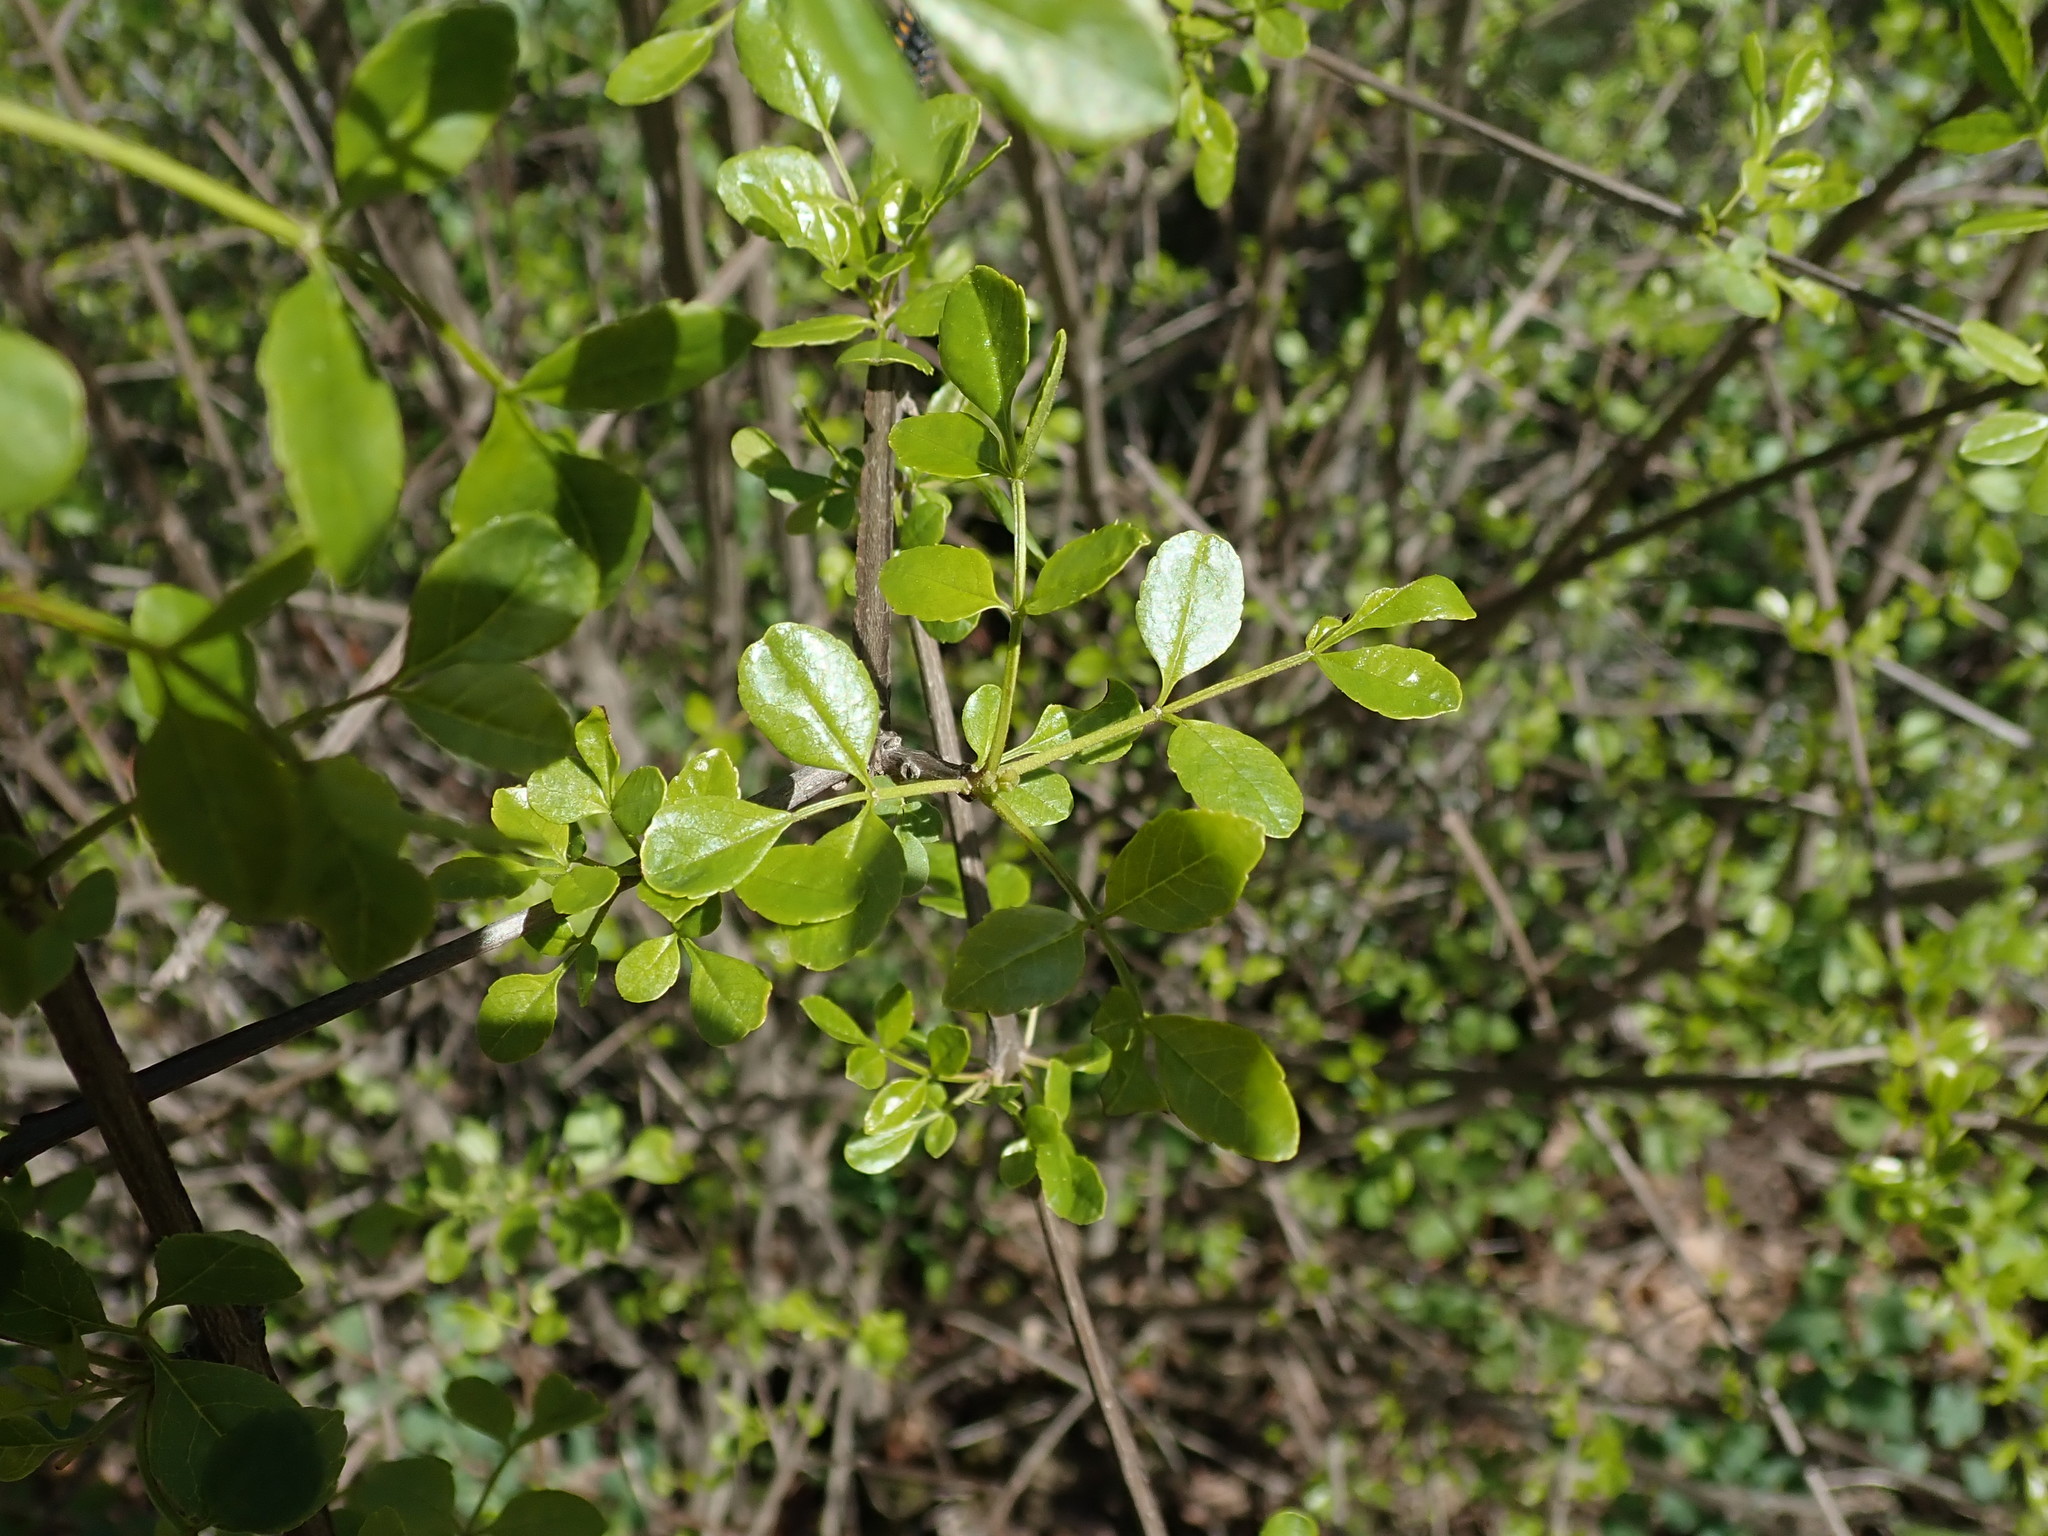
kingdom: Plantae
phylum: Tracheophyta
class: Magnoliopsida
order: Lamiales
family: Oleaceae
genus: Fraxinus
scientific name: Fraxinus dipetala
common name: California ash
